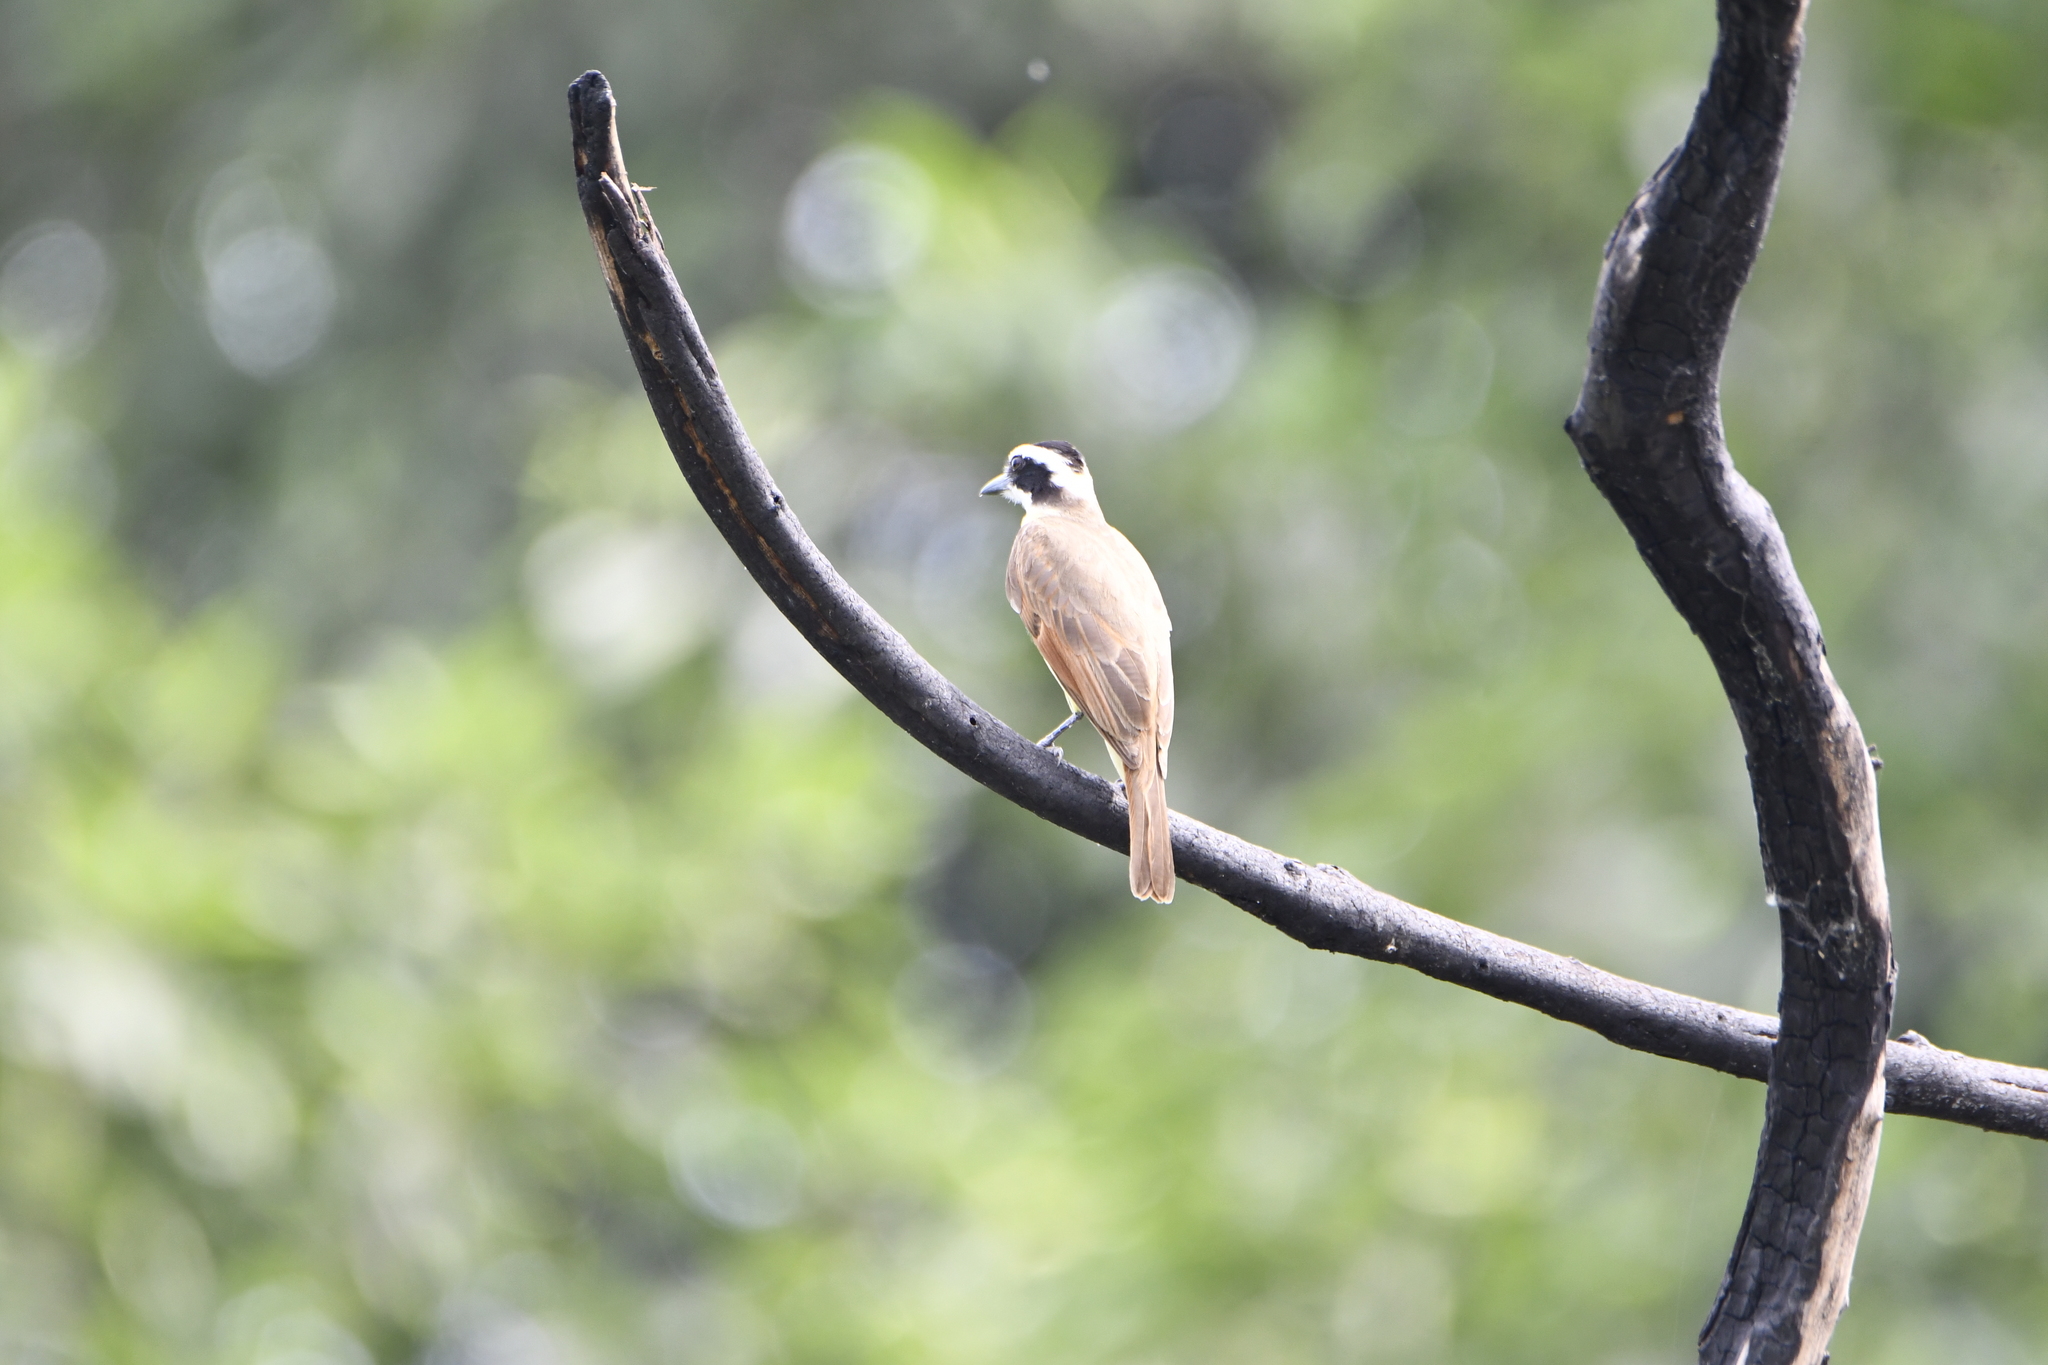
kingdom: Animalia
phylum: Chordata
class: Aves
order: Passeriformes
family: Tyrannidae
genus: Pitangus
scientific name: Pitangus sulphuratus
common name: Great kiskadee
